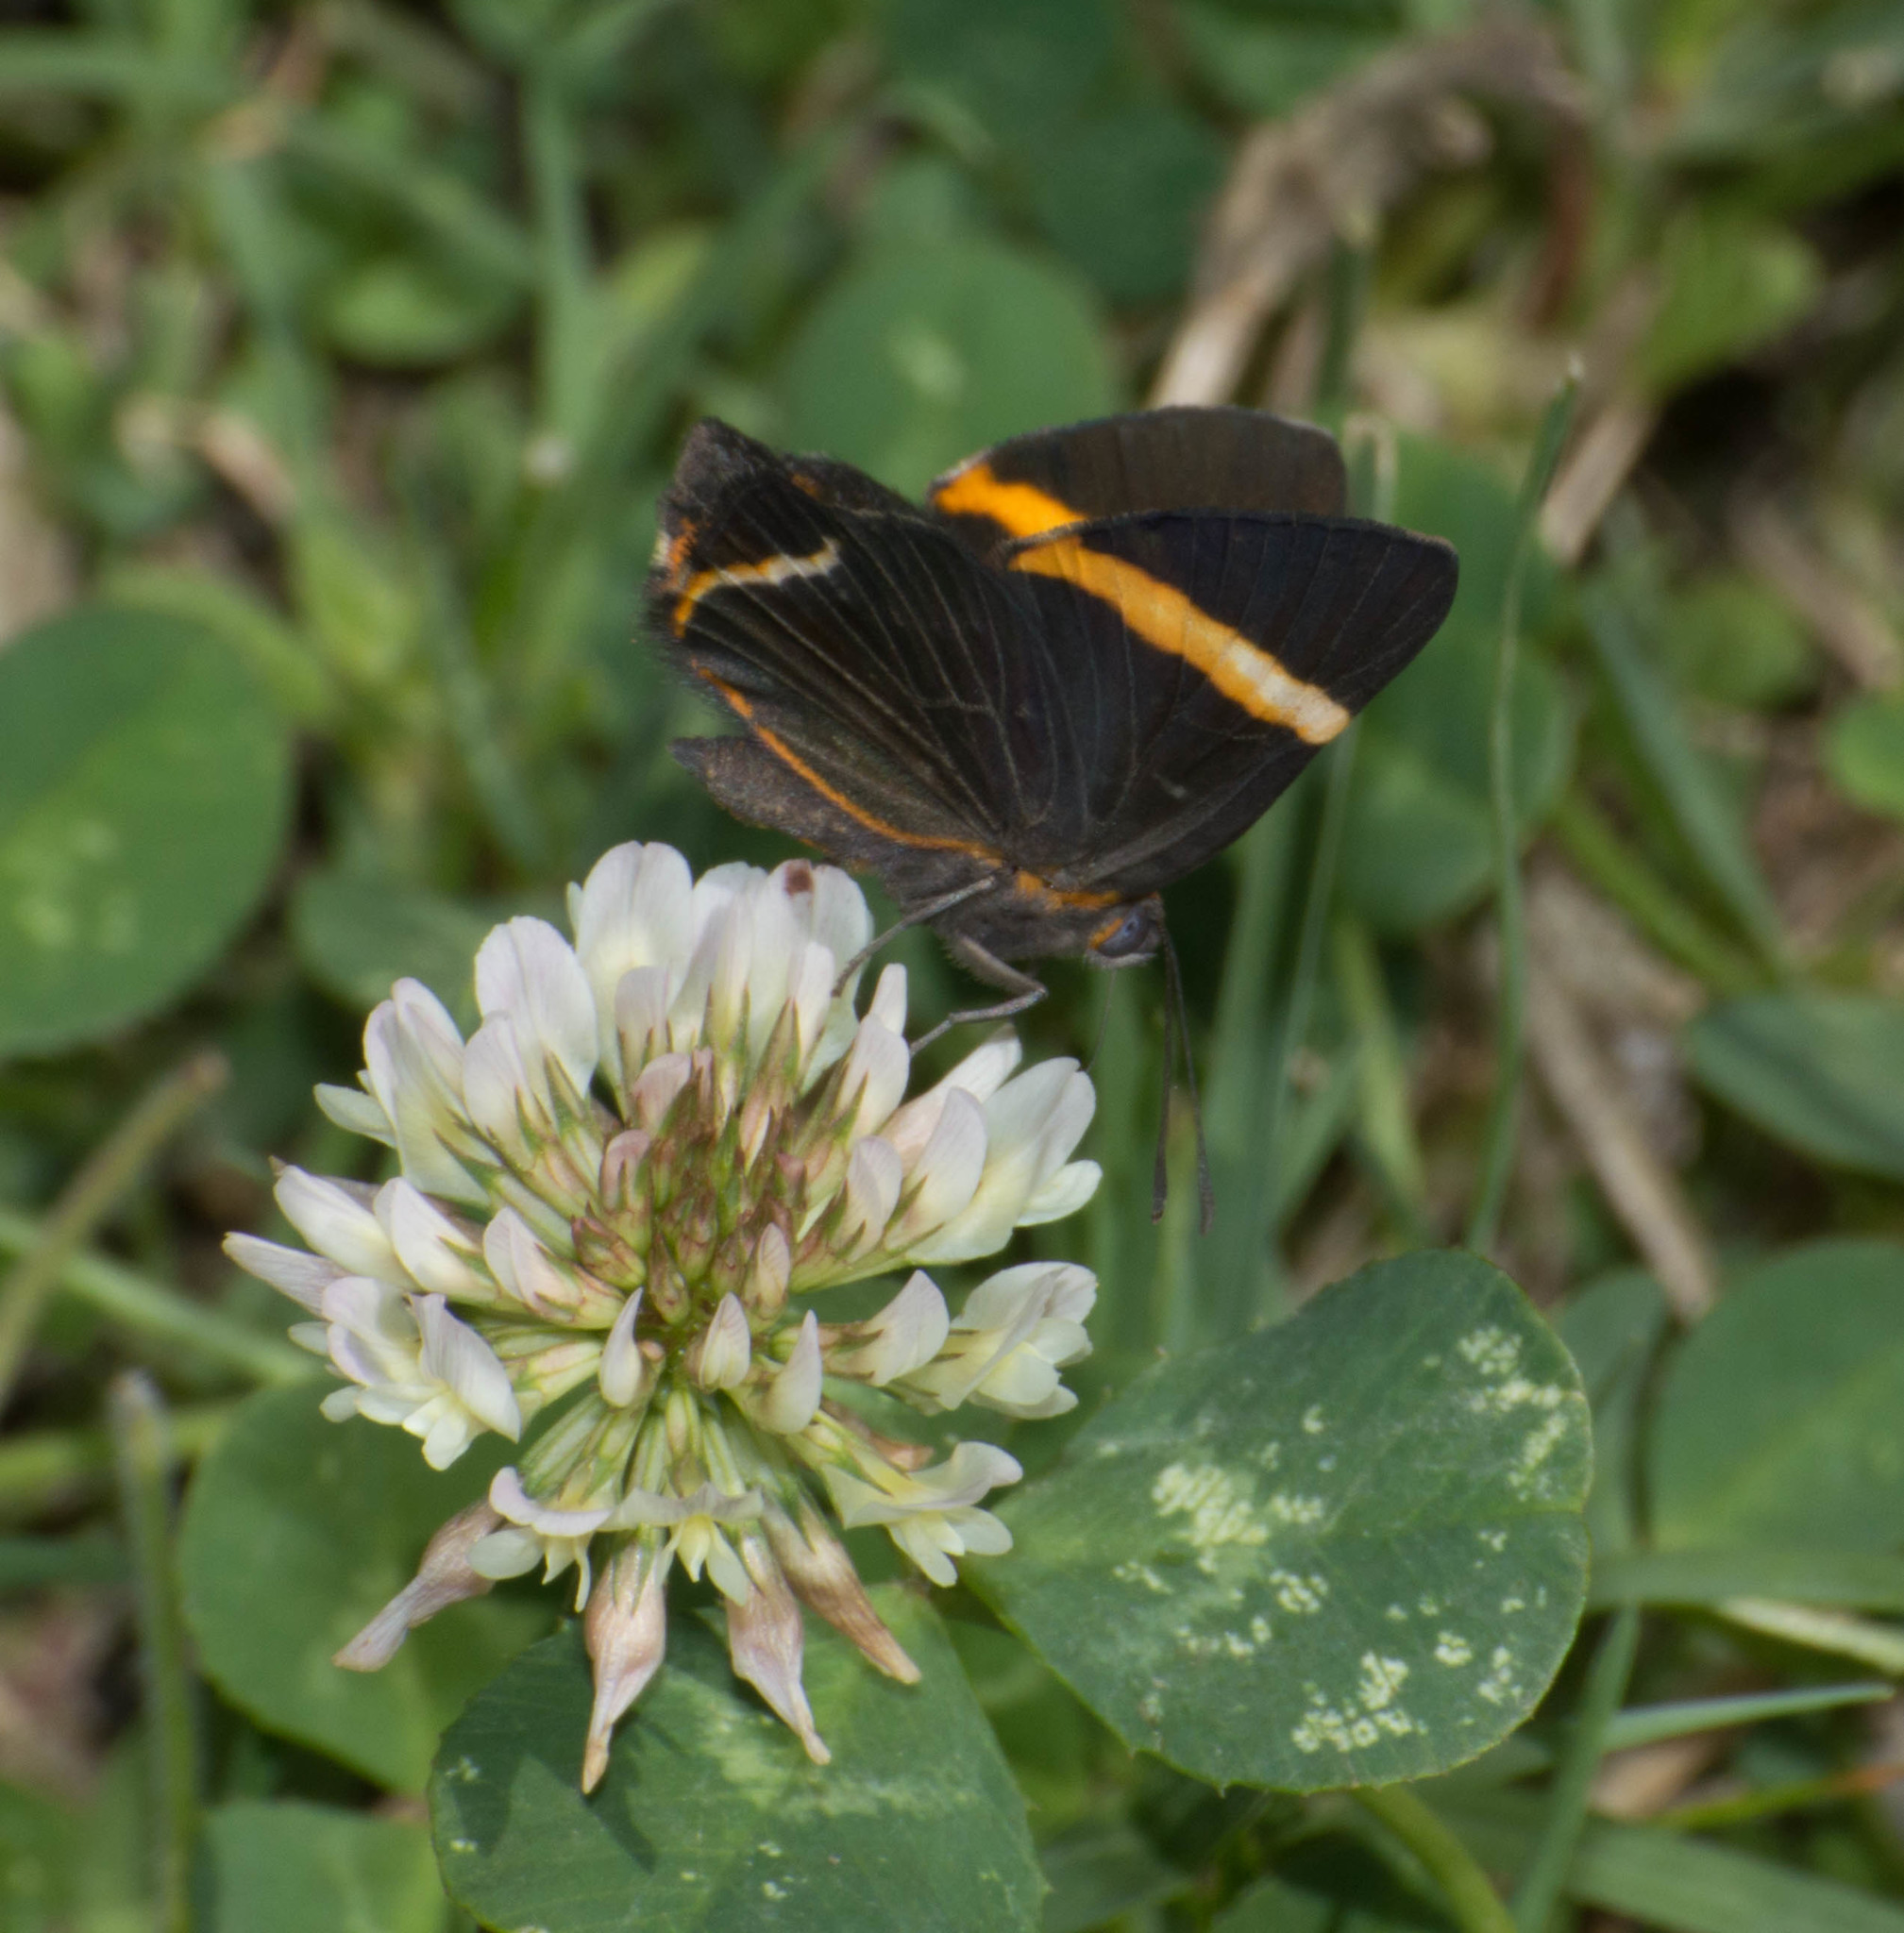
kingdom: Animalia
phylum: Arthropoda
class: Insecta
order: Lepidoptera
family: Riodinidae
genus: Riodina
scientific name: Riodina lysippoides
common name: Little dancer metalmark
